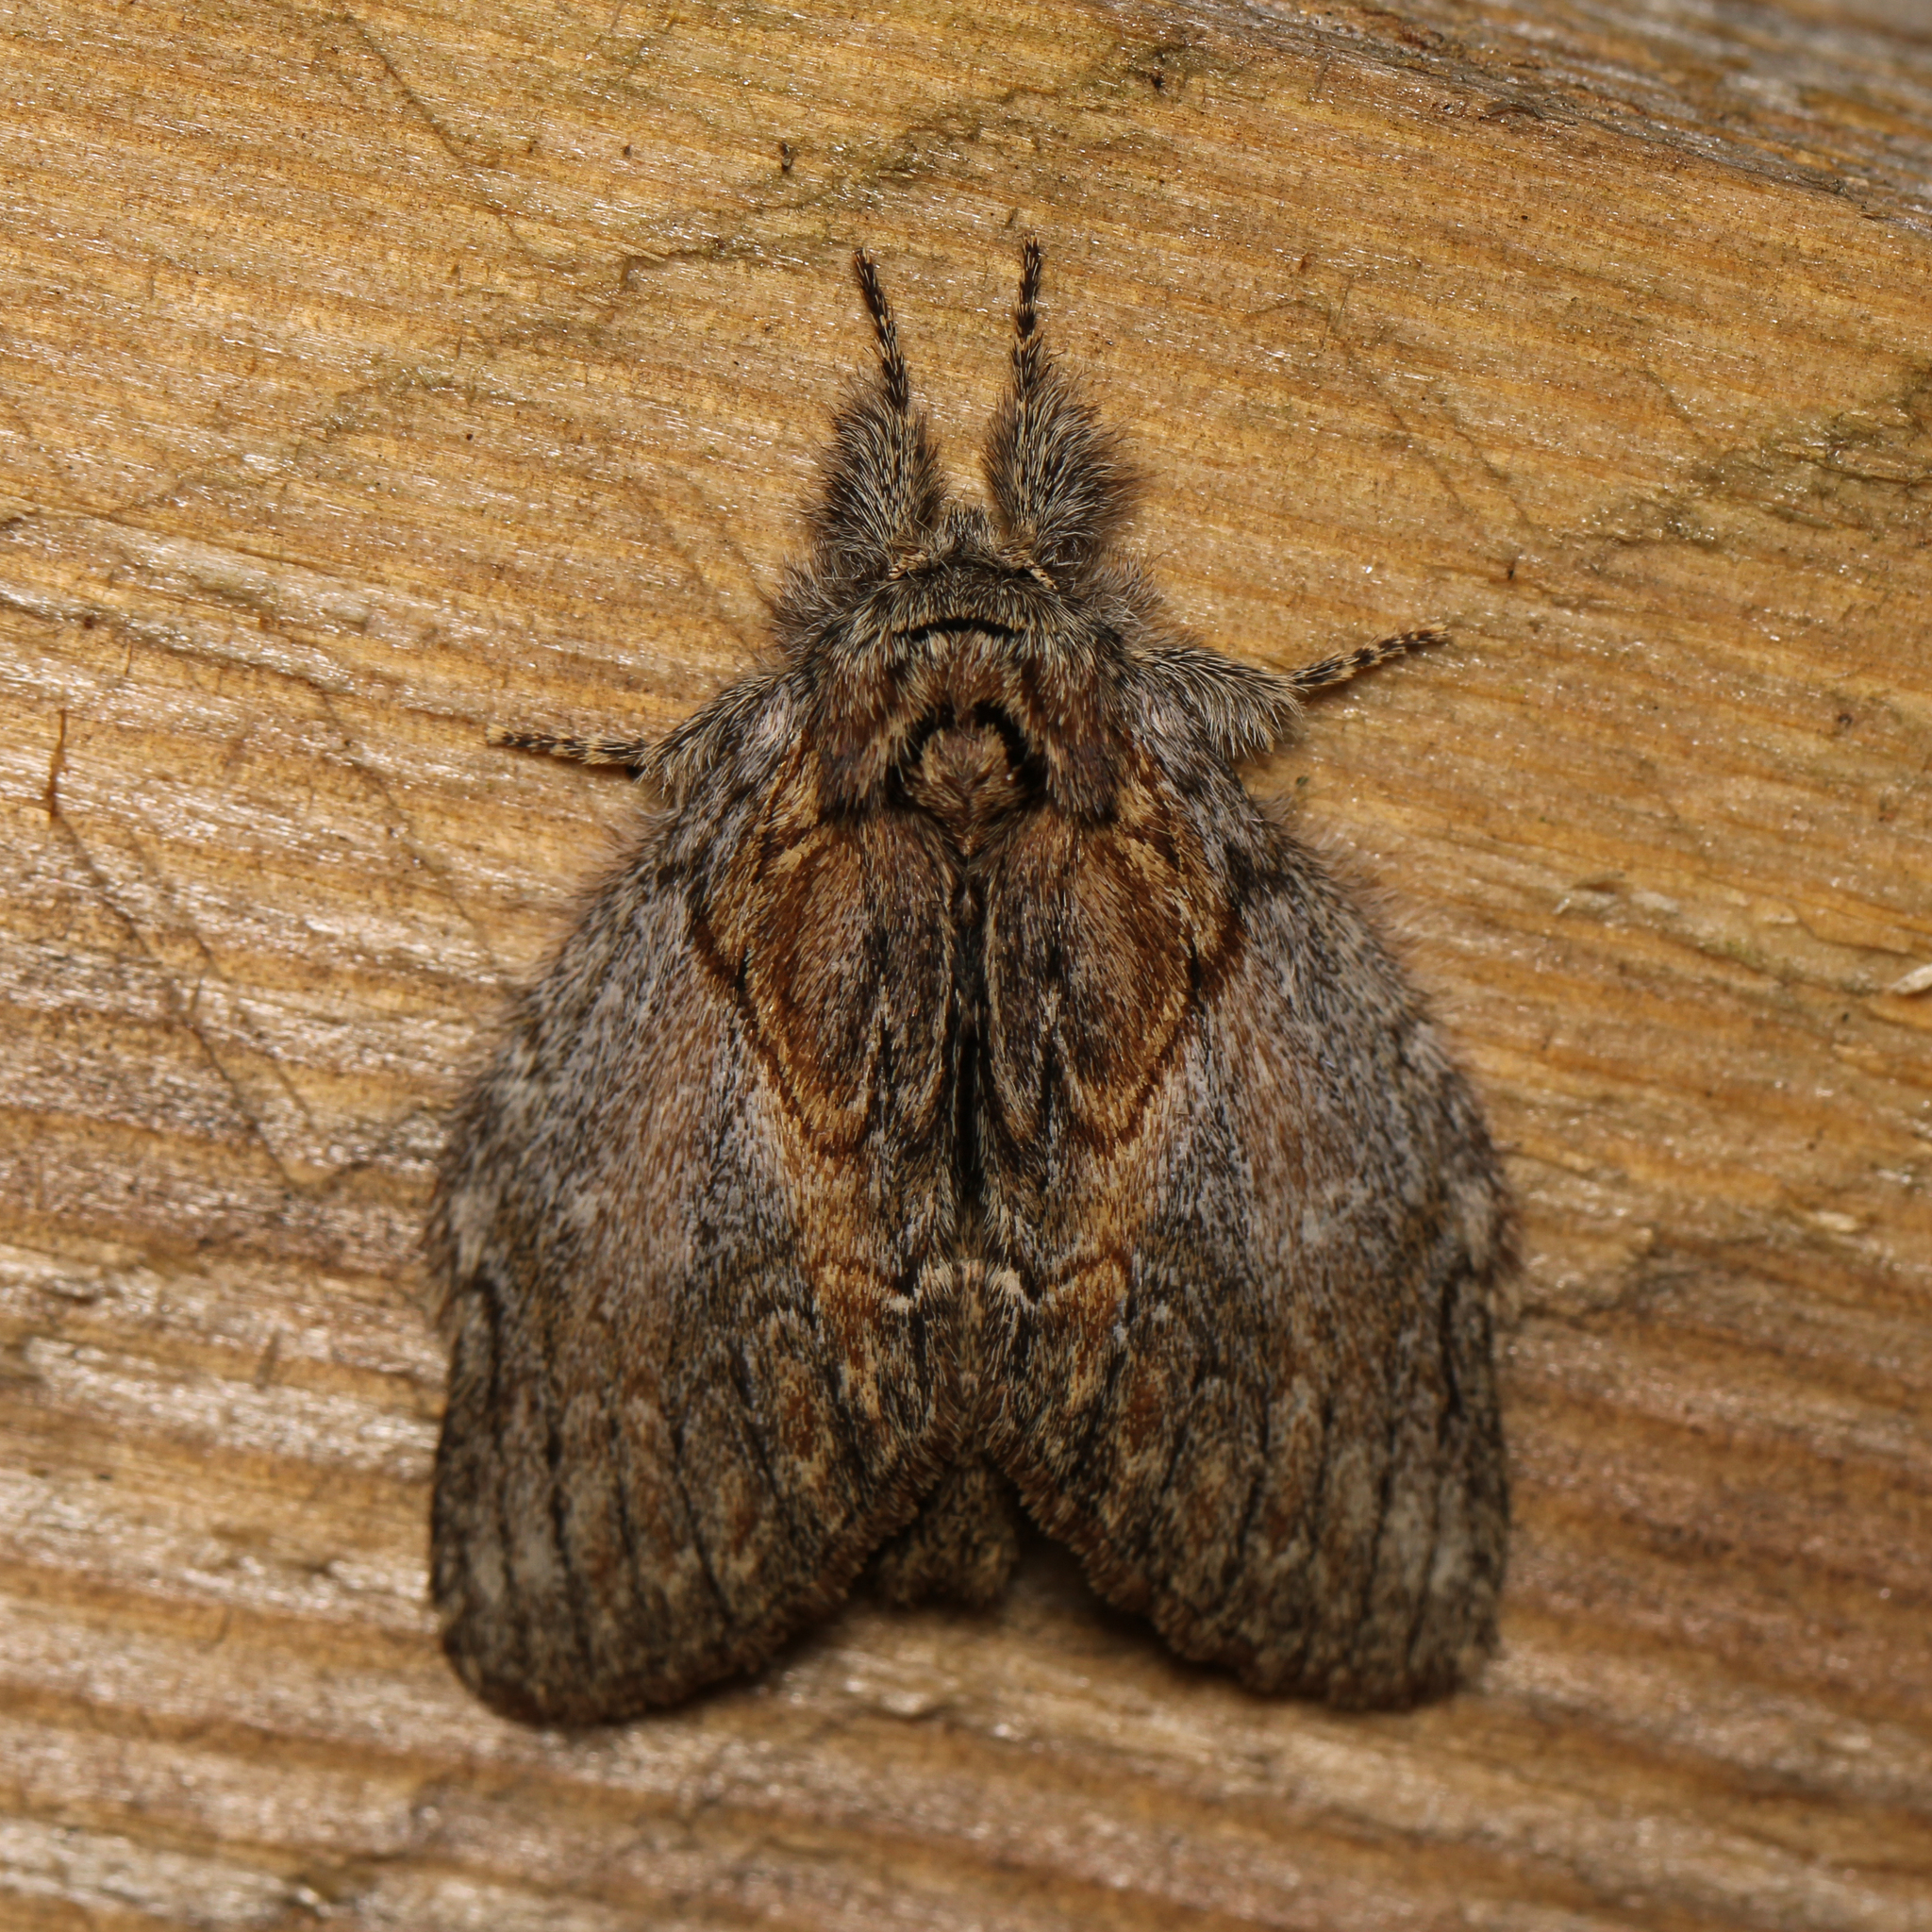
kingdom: Animalia
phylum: Arthropoda
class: Insecta
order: Lepidoptera
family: Notodontidae
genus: Peridea
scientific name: Peridea basitriens
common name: Oval-based prominent
